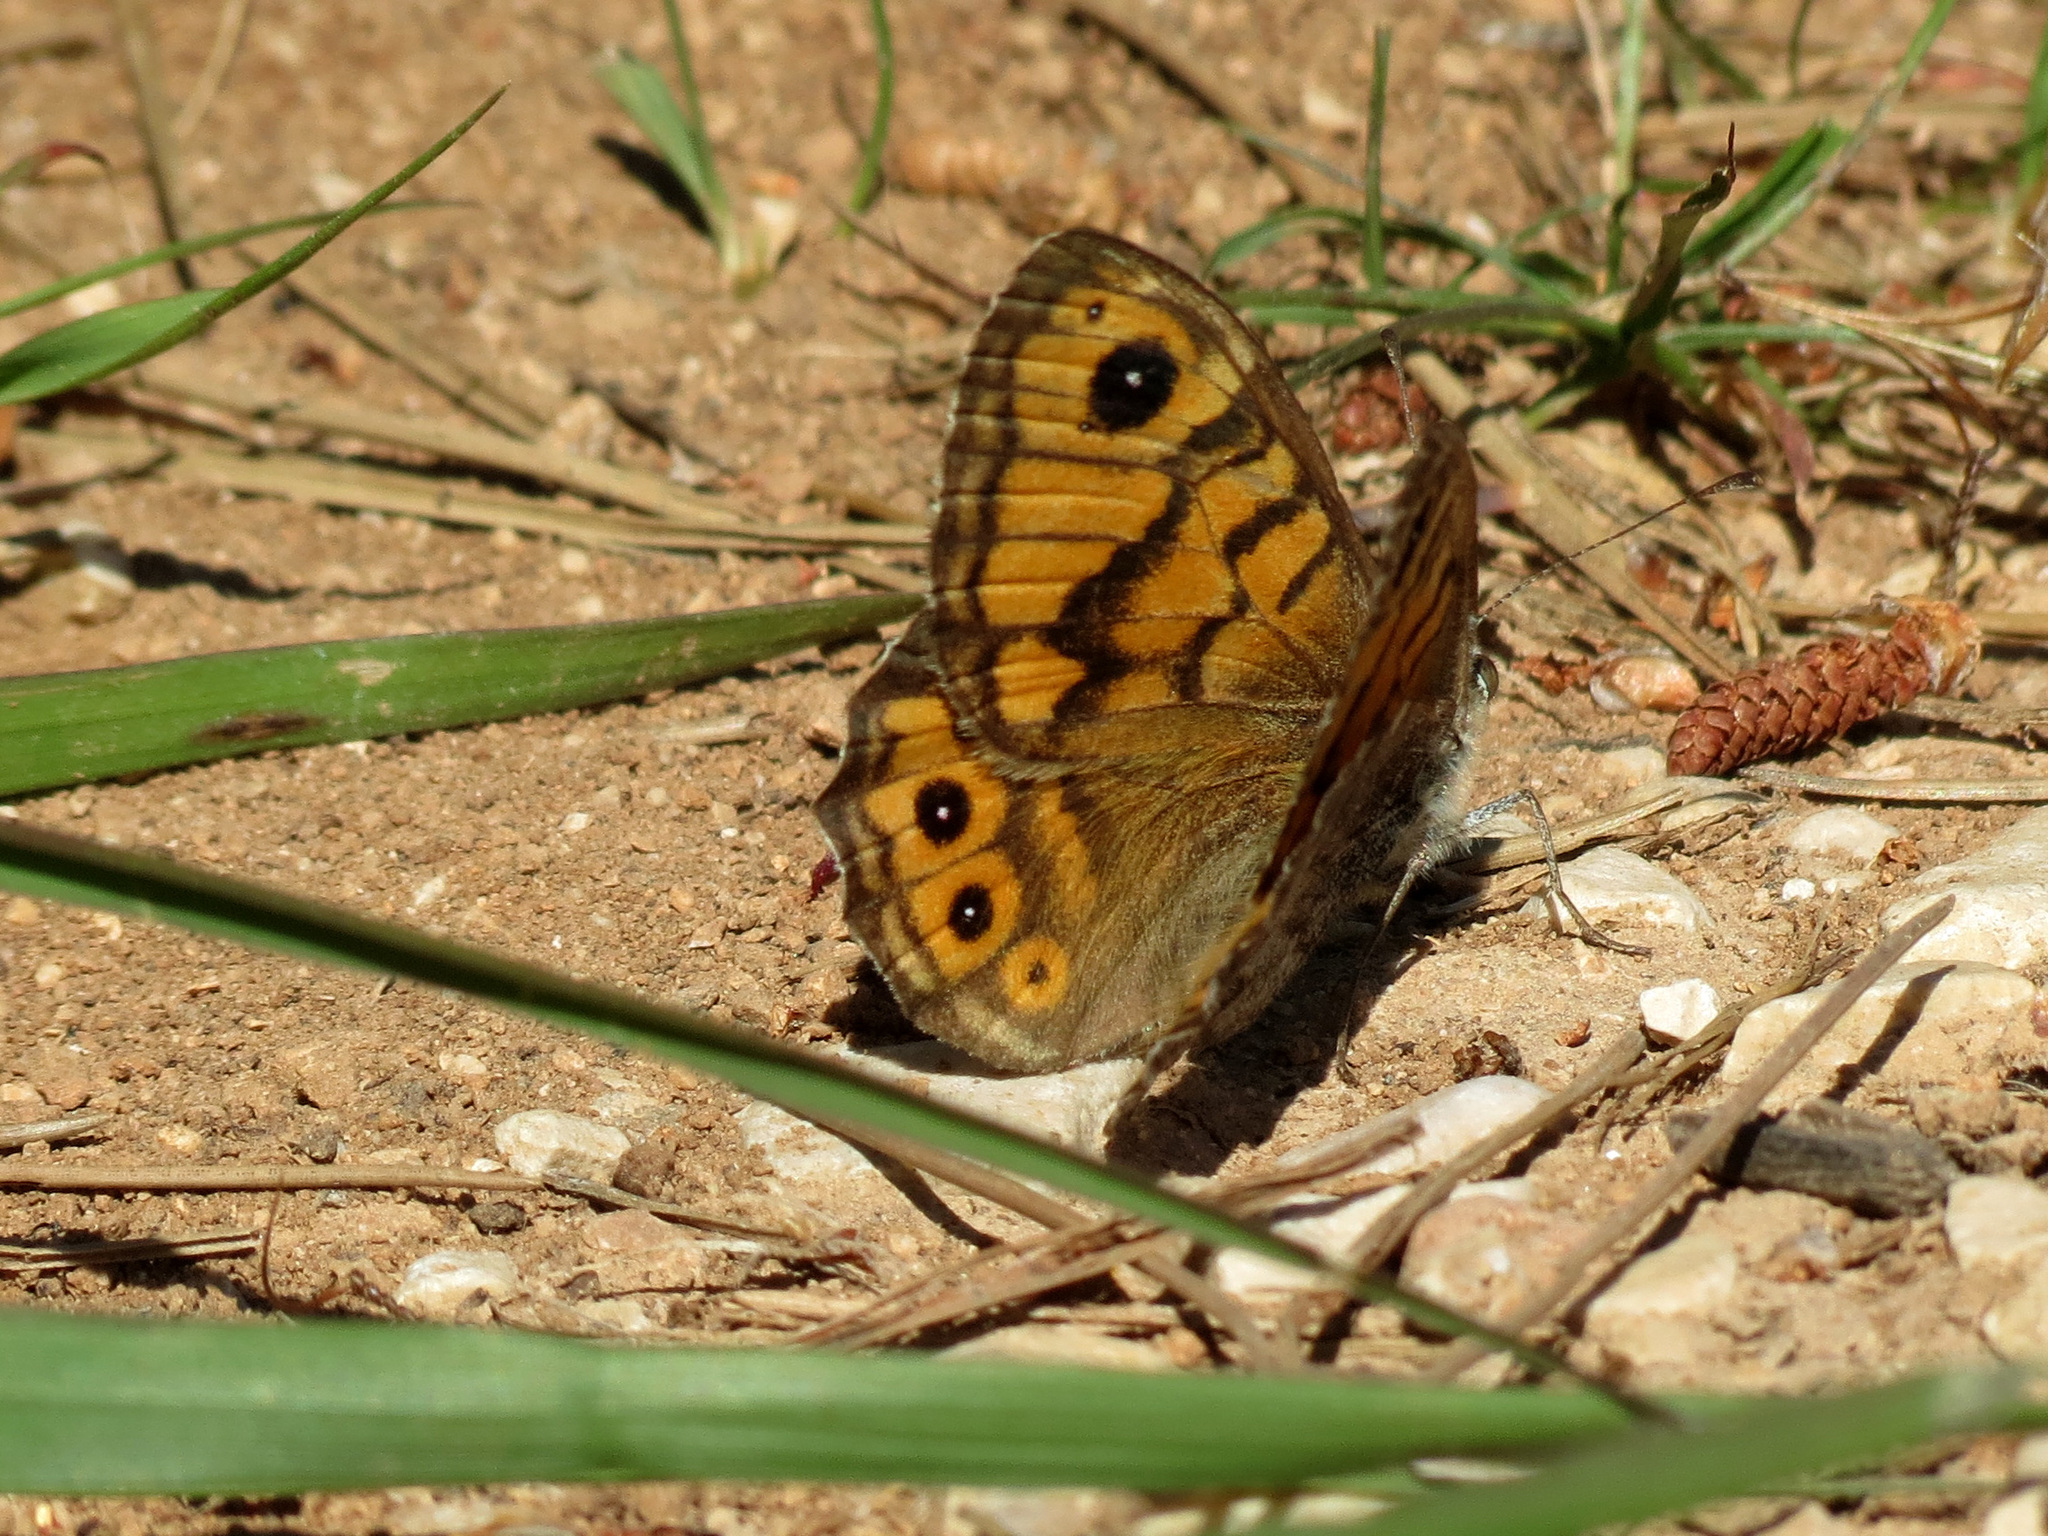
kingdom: Animalia
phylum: Arthropoda
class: Insecta
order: Lepidoptera
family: Nymphalidae
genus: Pararge
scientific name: Pararge Lasiommata megera
